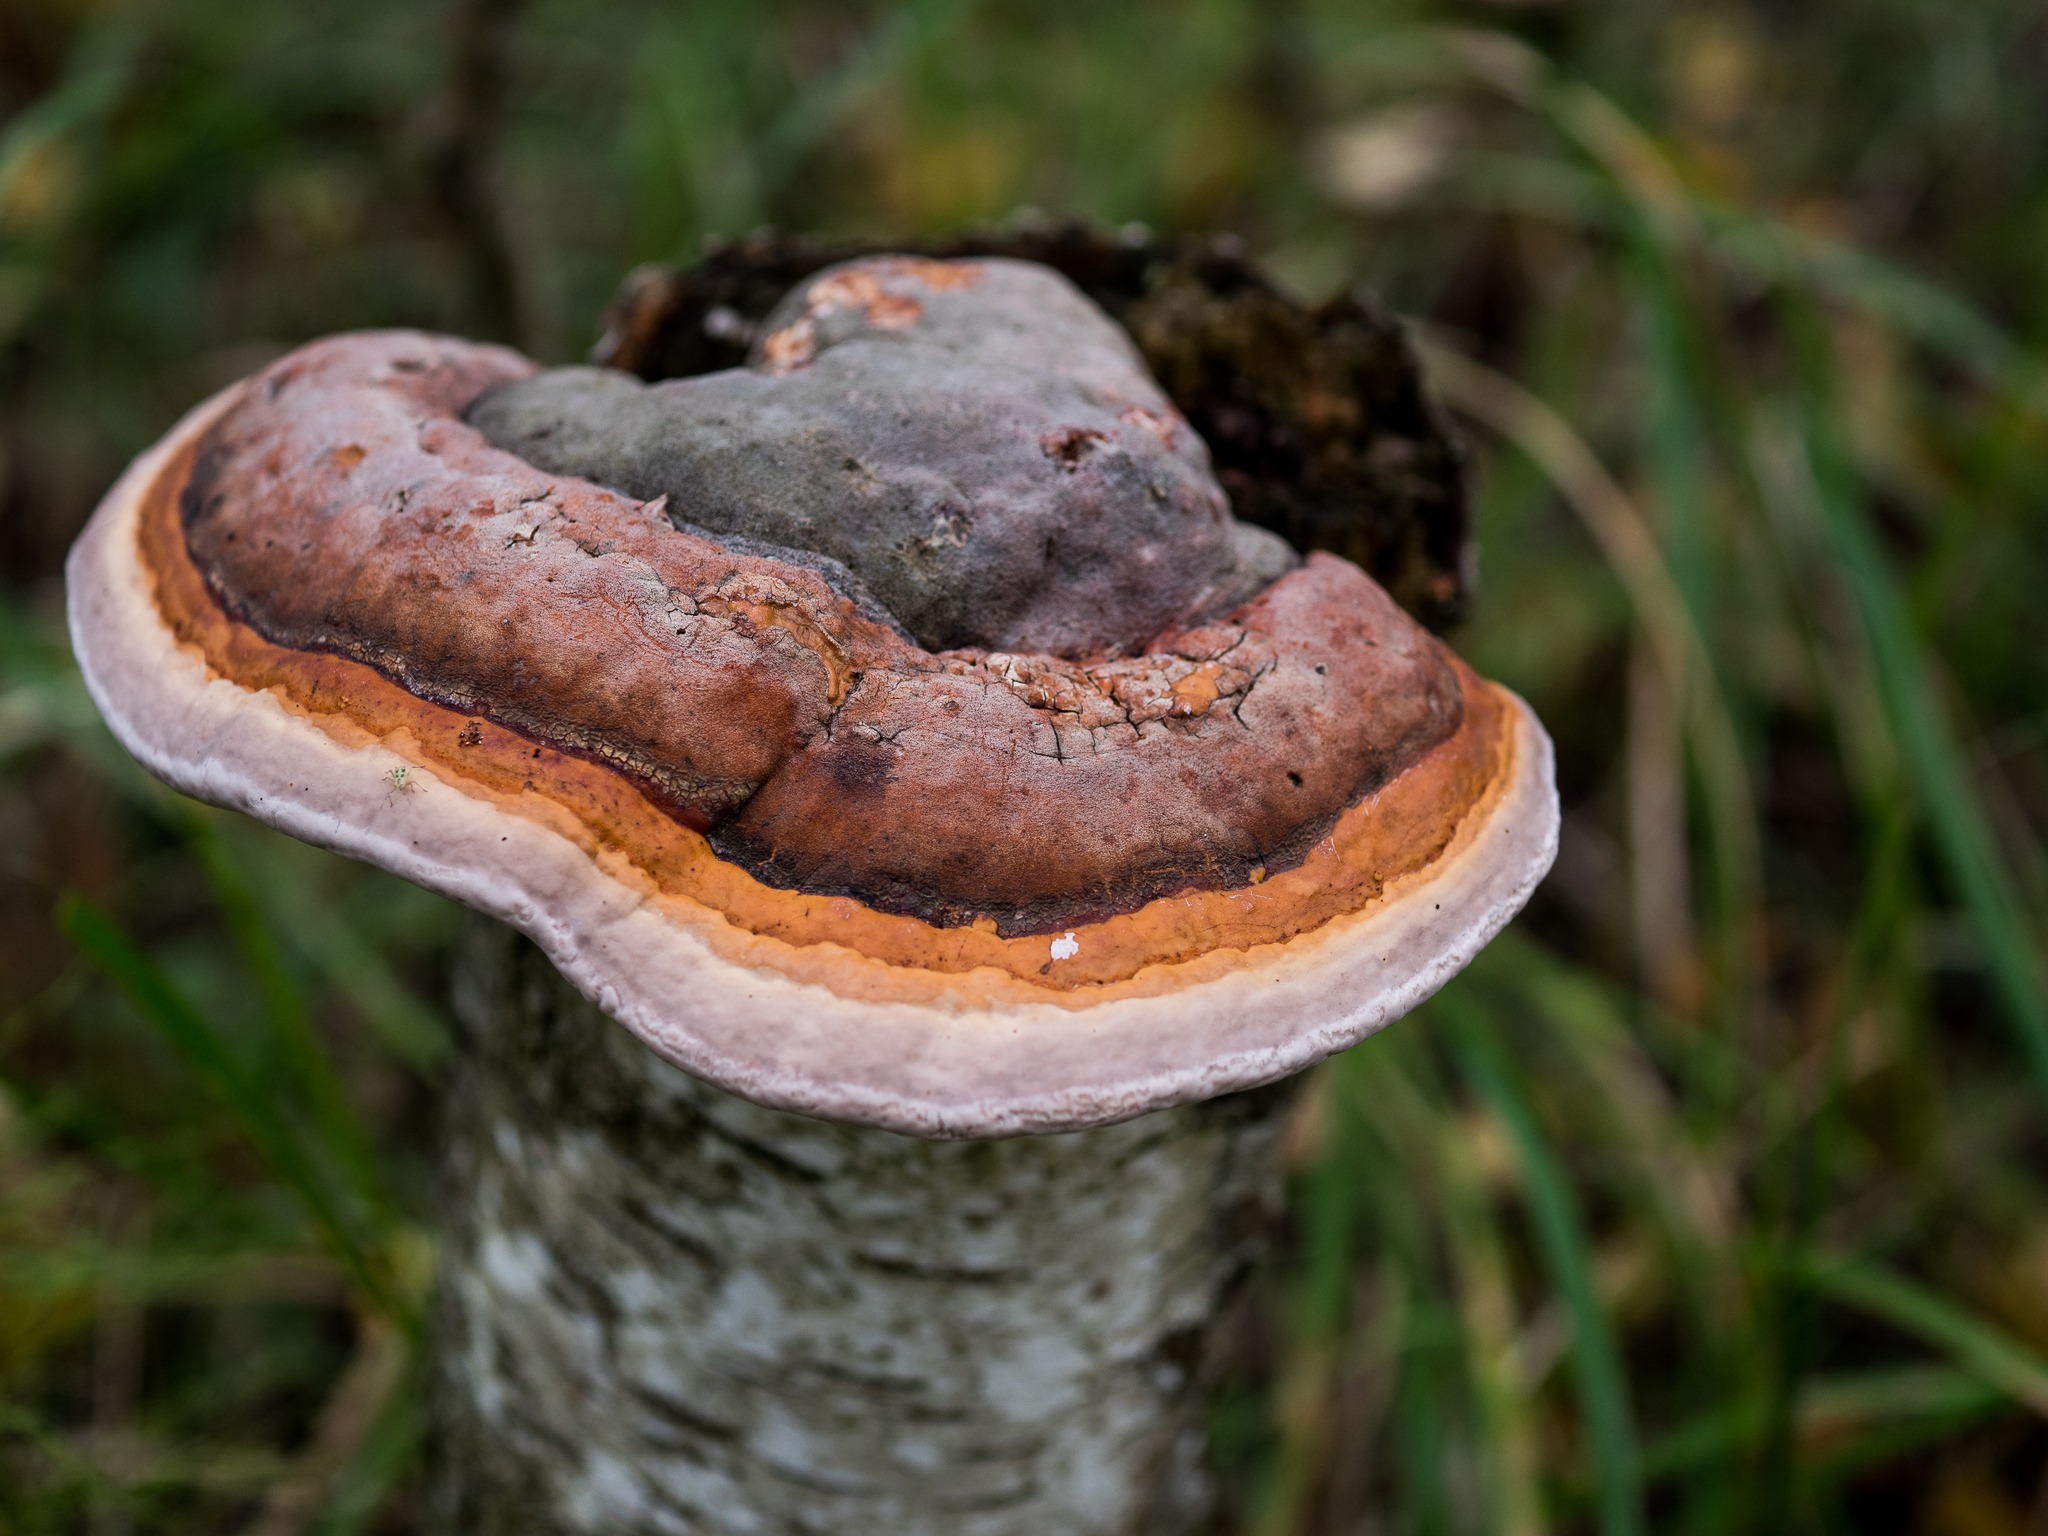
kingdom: Fungi
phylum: Basidiomycota
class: Agaricomycetes
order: Polyporales
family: Fomitopsidaceae
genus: Fomitopsis
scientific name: Fomitopsis pinicola
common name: Red-belted bracket
